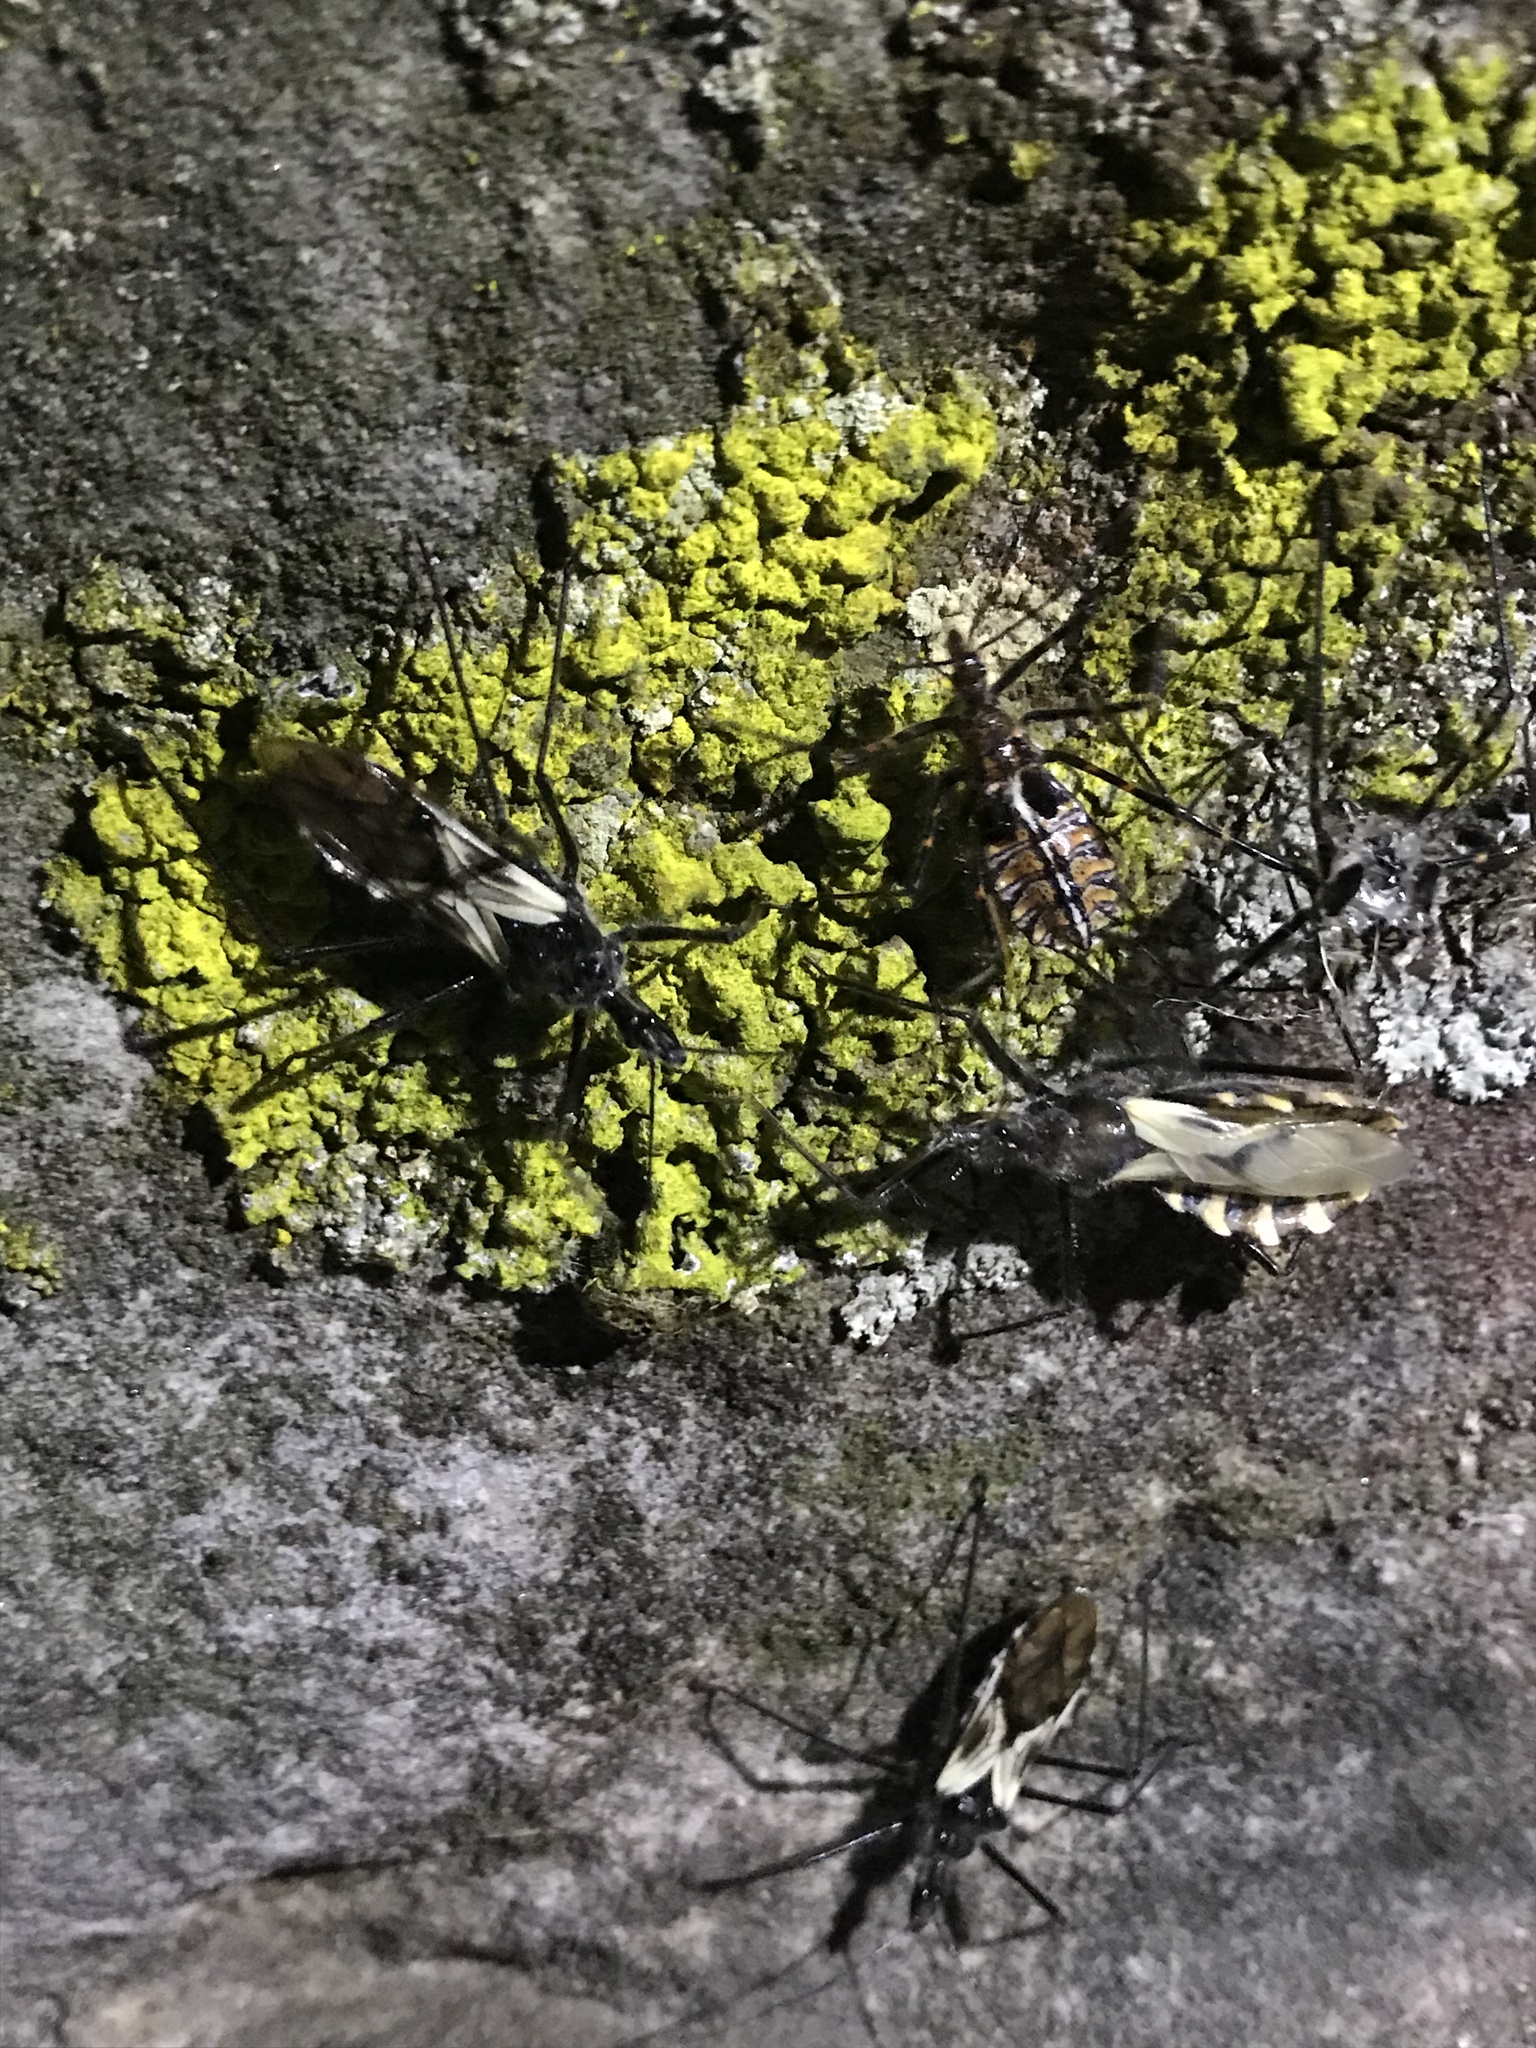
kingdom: Animalia
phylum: Arthropoda
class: Insecta
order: Hemiptera
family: Reduviidae
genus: Ambastus
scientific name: Ambastus villosus
